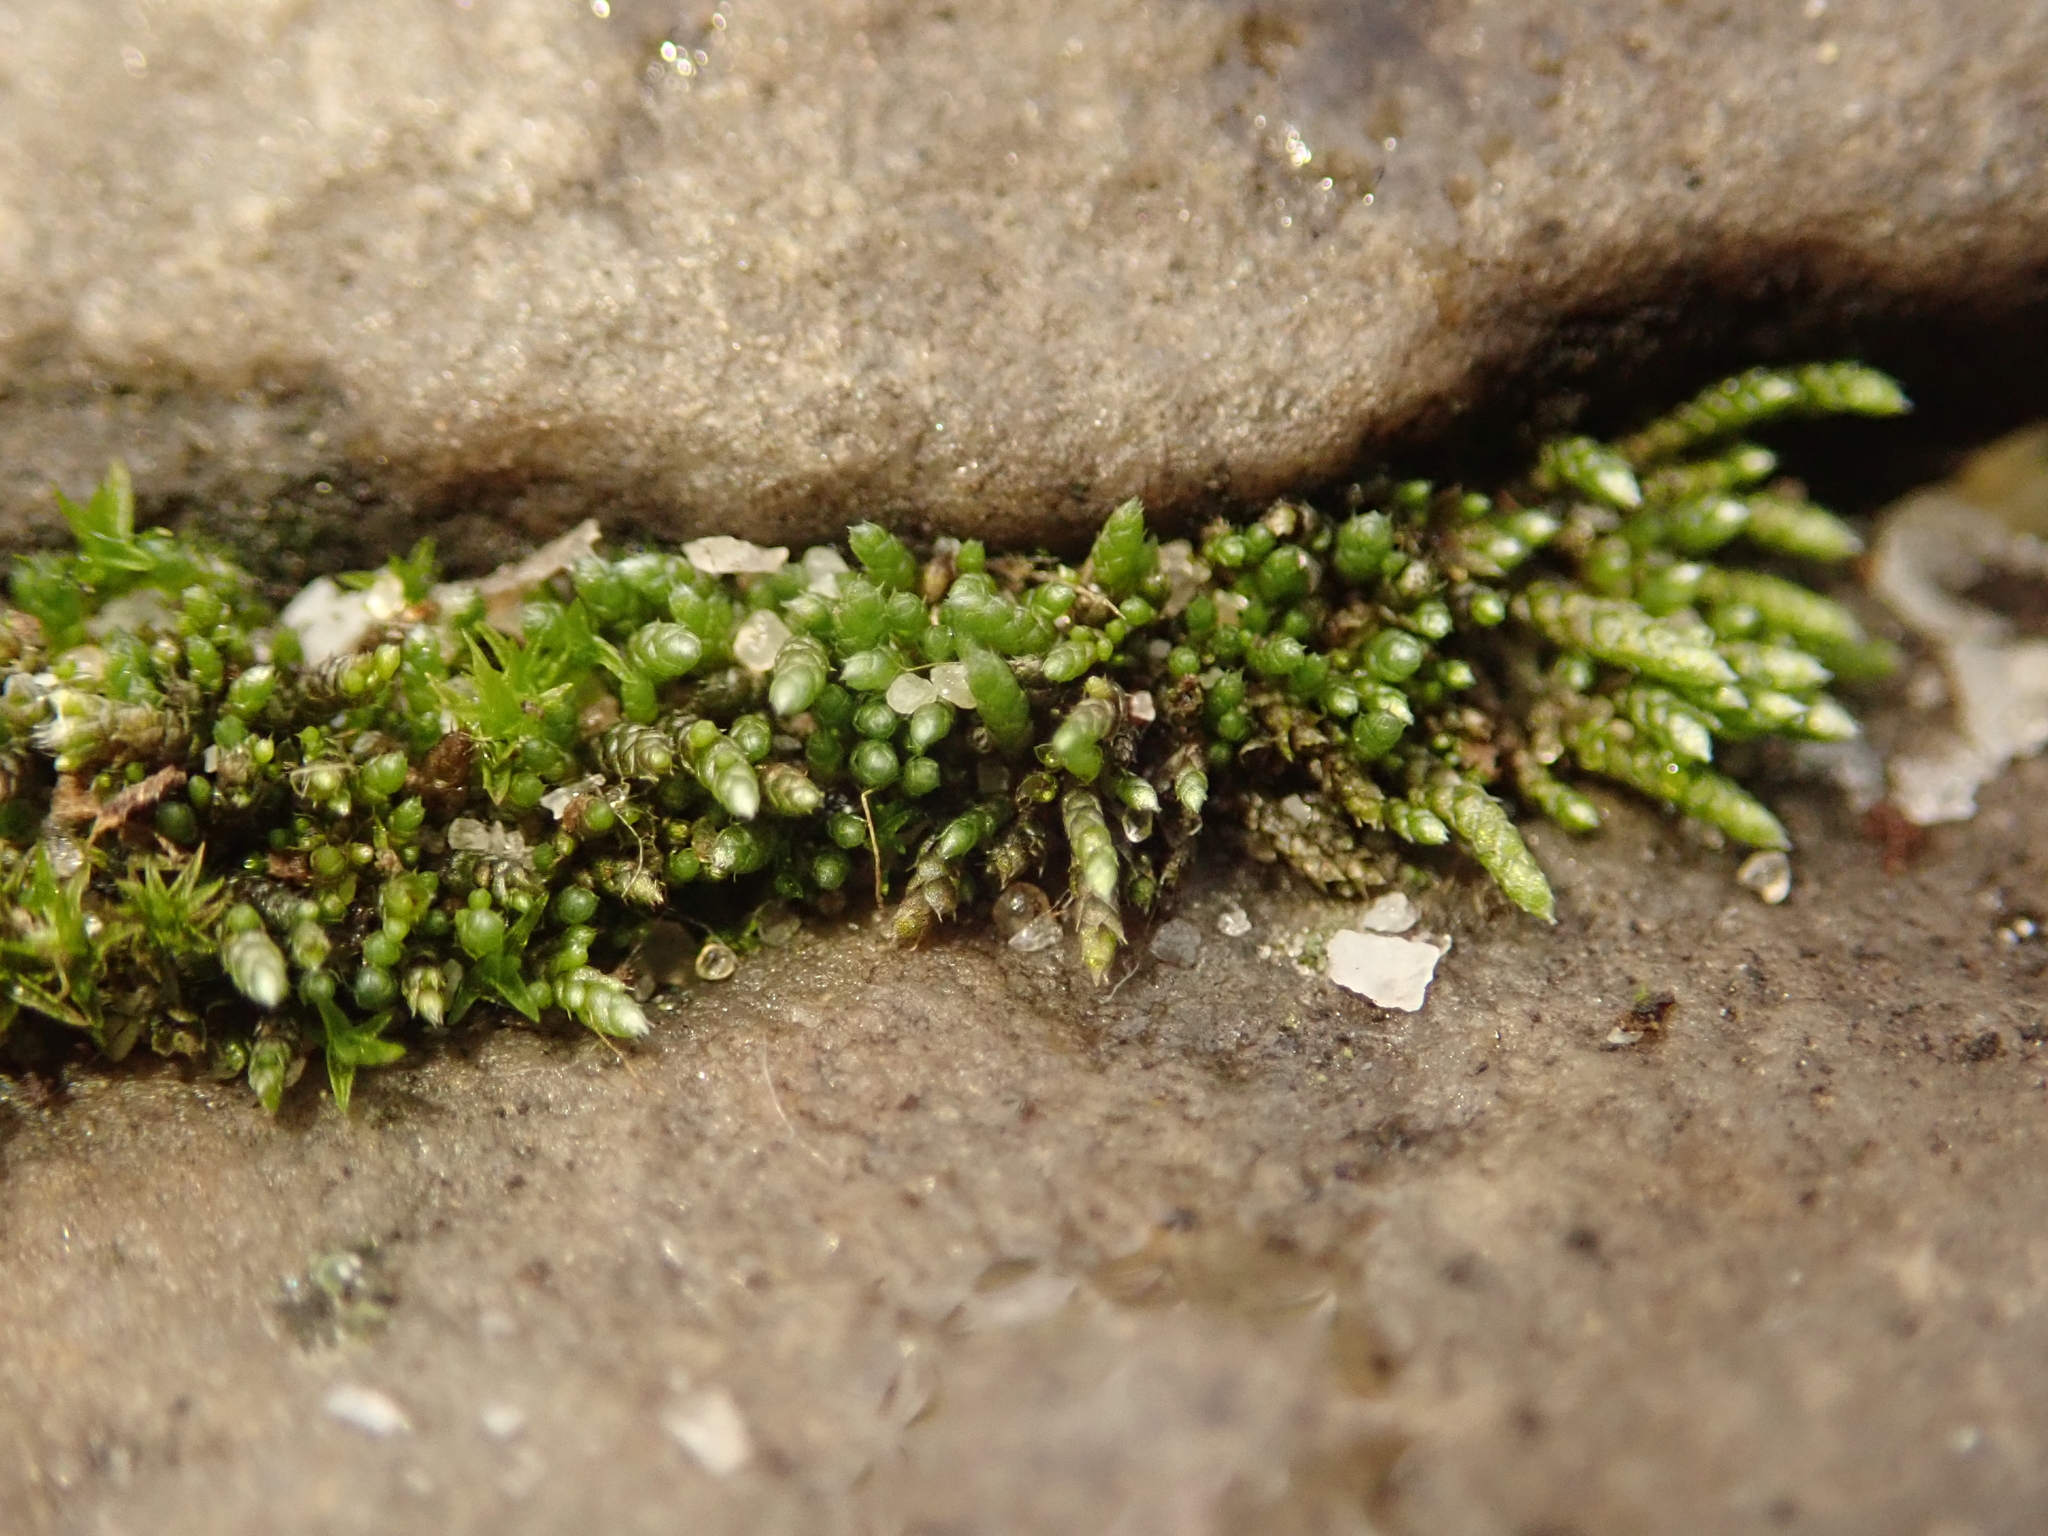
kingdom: Plantae
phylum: Bryophyta
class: Bryopsida
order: Bryales
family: Bryaceae
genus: Bryum
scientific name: Bryum argenteum
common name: Silver-moss
